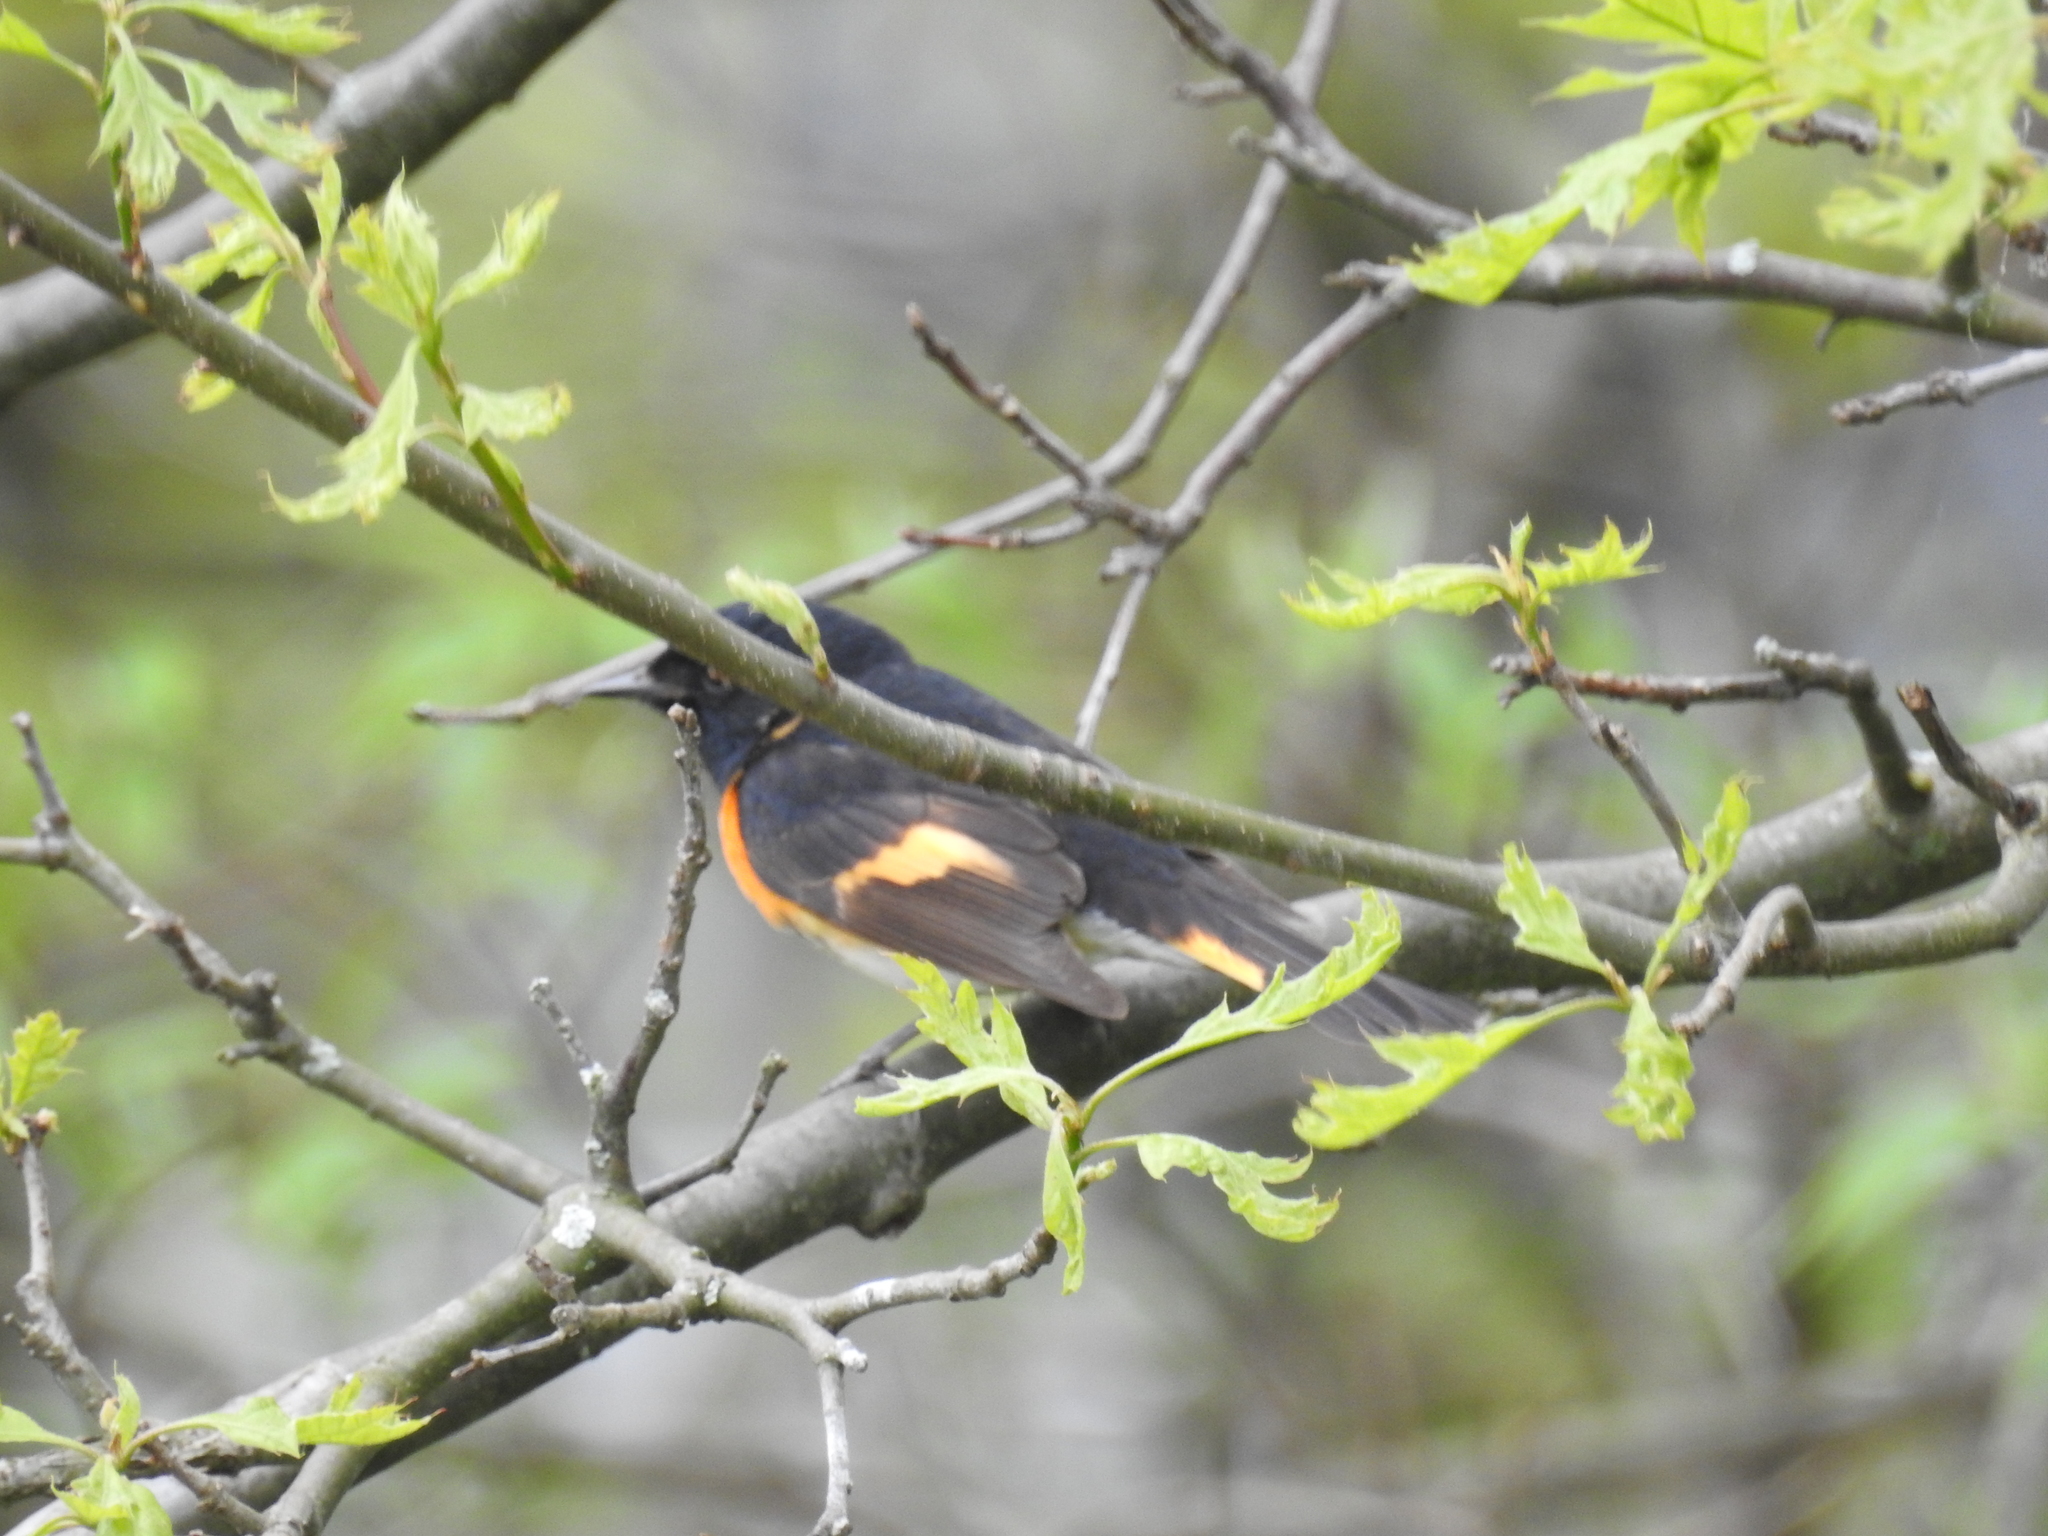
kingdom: Animalia
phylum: Chordata
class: Aves
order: Passeriformes
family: Parulidae
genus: Setophaga
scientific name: Setophaga ruticilla
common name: American redstart
